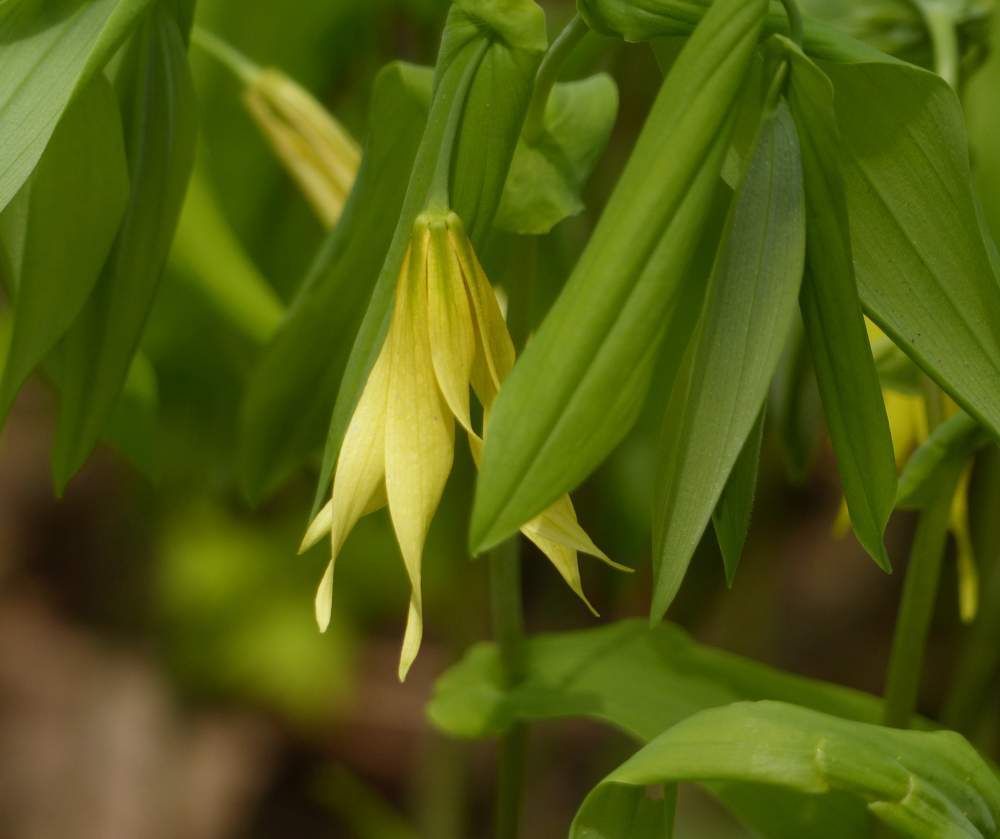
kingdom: Plantae
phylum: Tracheophyta
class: Liliopsida
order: Liliales
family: Colchicaceae
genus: Uvularia
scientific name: Uvularia grandiflora
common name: Bellwort
